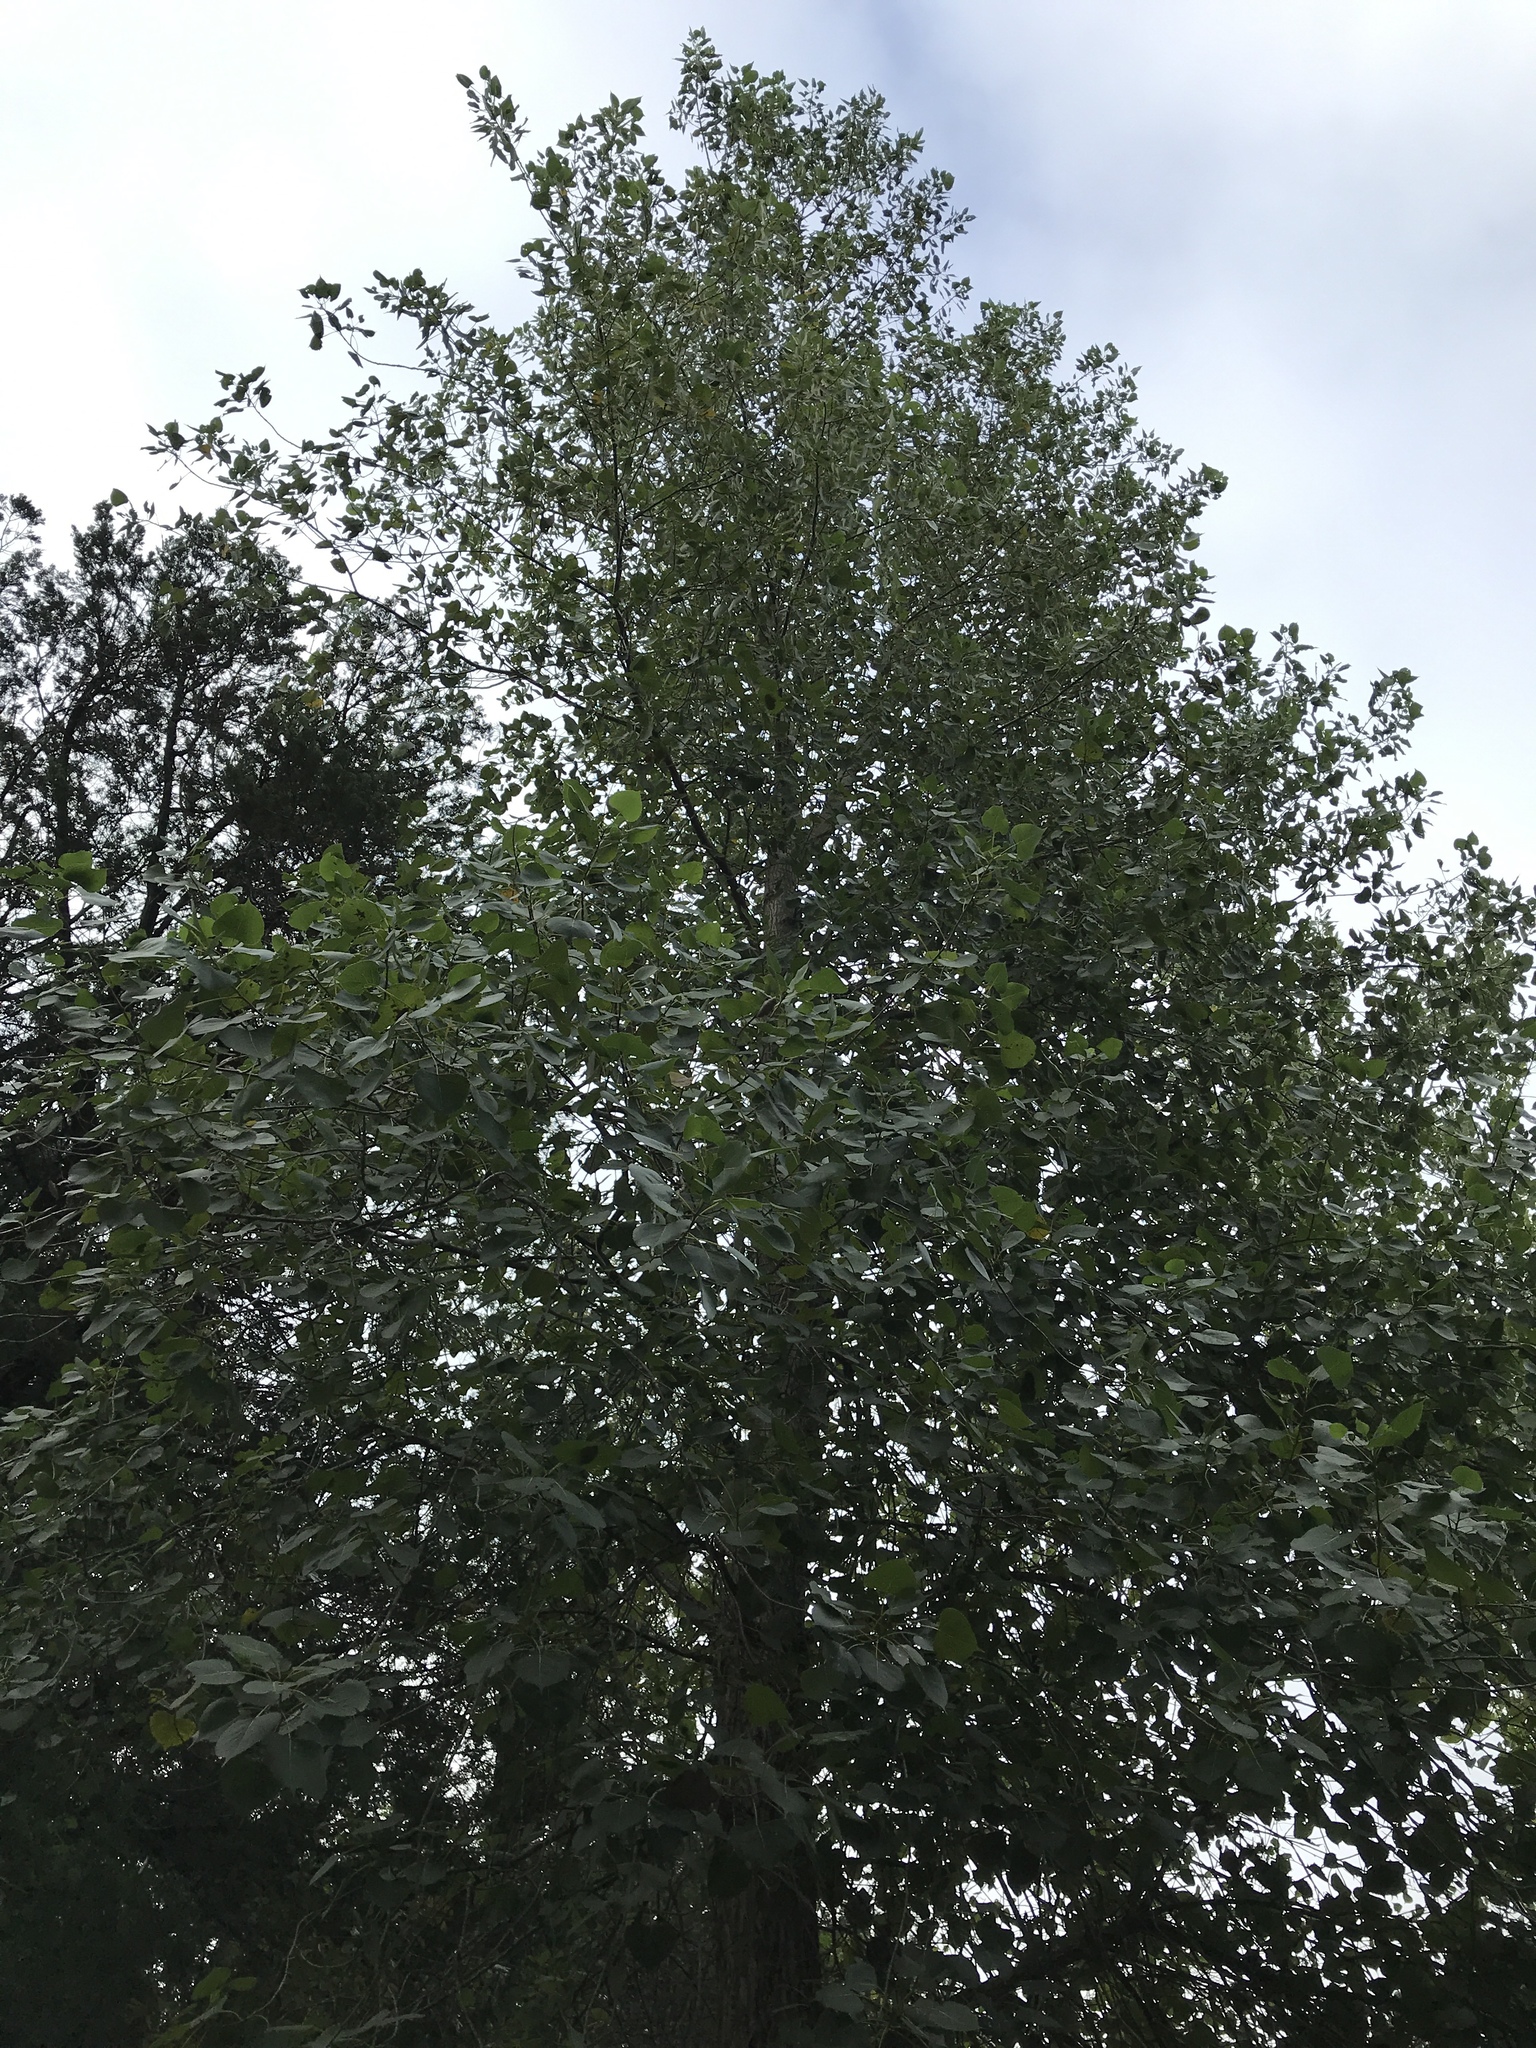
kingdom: Plantae
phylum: Tracheophyta
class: Magnoliopsida
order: Malpighiales
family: Salicaceae
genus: Populus
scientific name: Populus deltoides
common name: Eastern cottonwood
